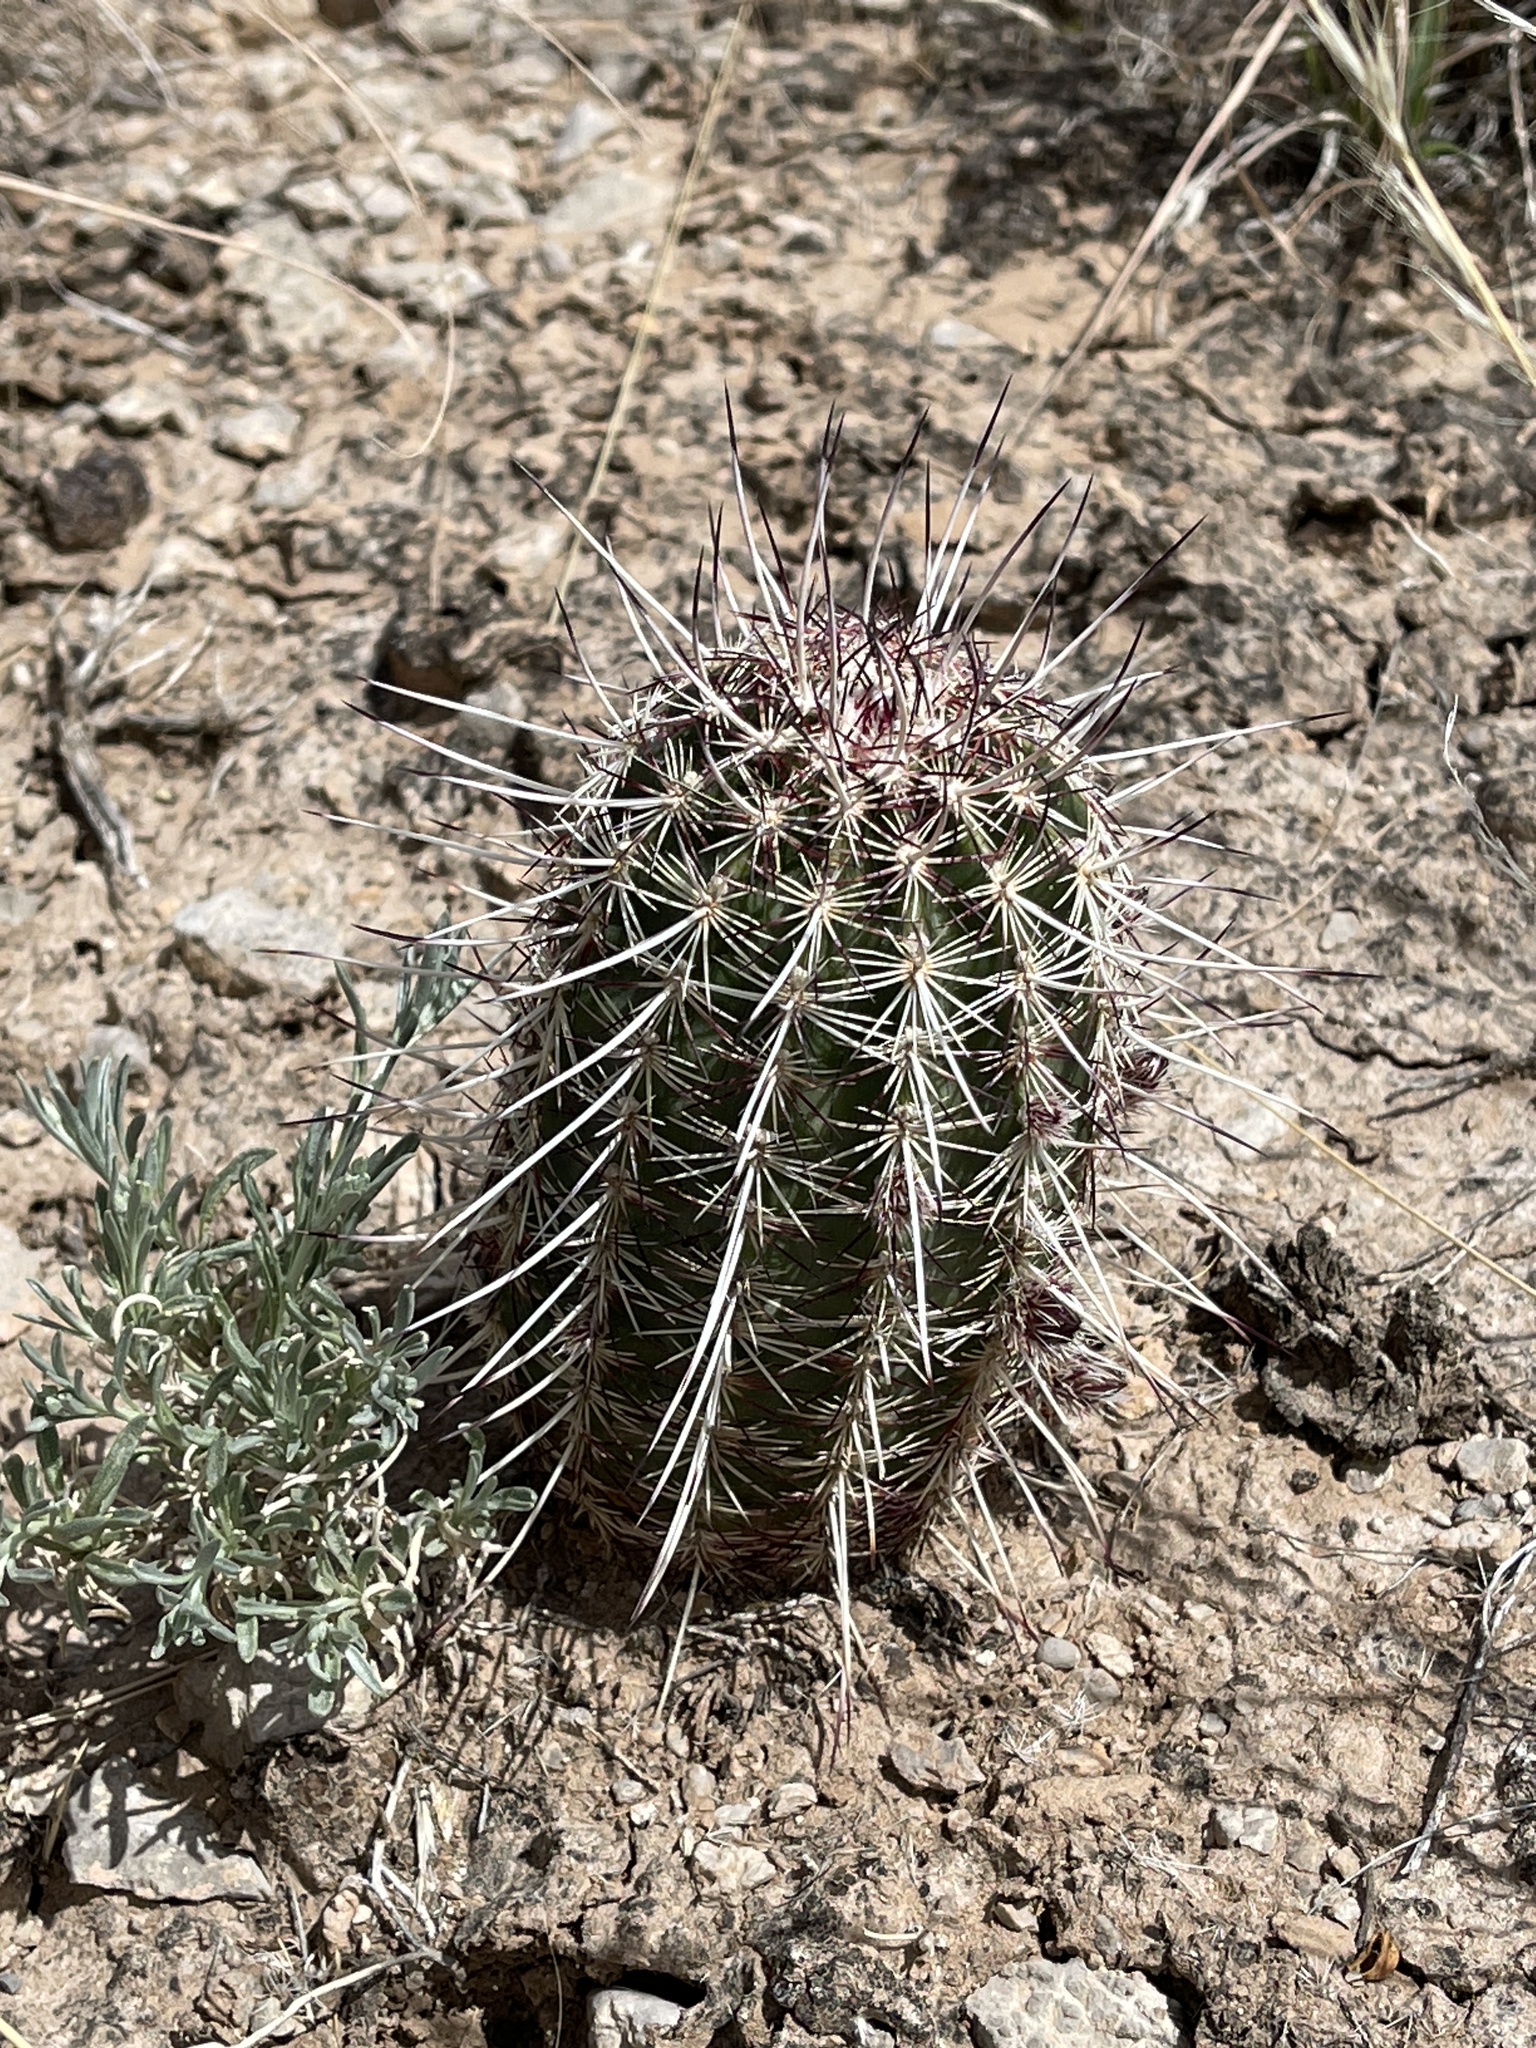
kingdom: Plantae
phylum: Tracheophyta
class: Magnoliopsida
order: Caryophyllales
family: Cactaceae
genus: Echinocereus
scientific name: Echinocereus viridiflorus
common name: Nylon hedgehog cactus
